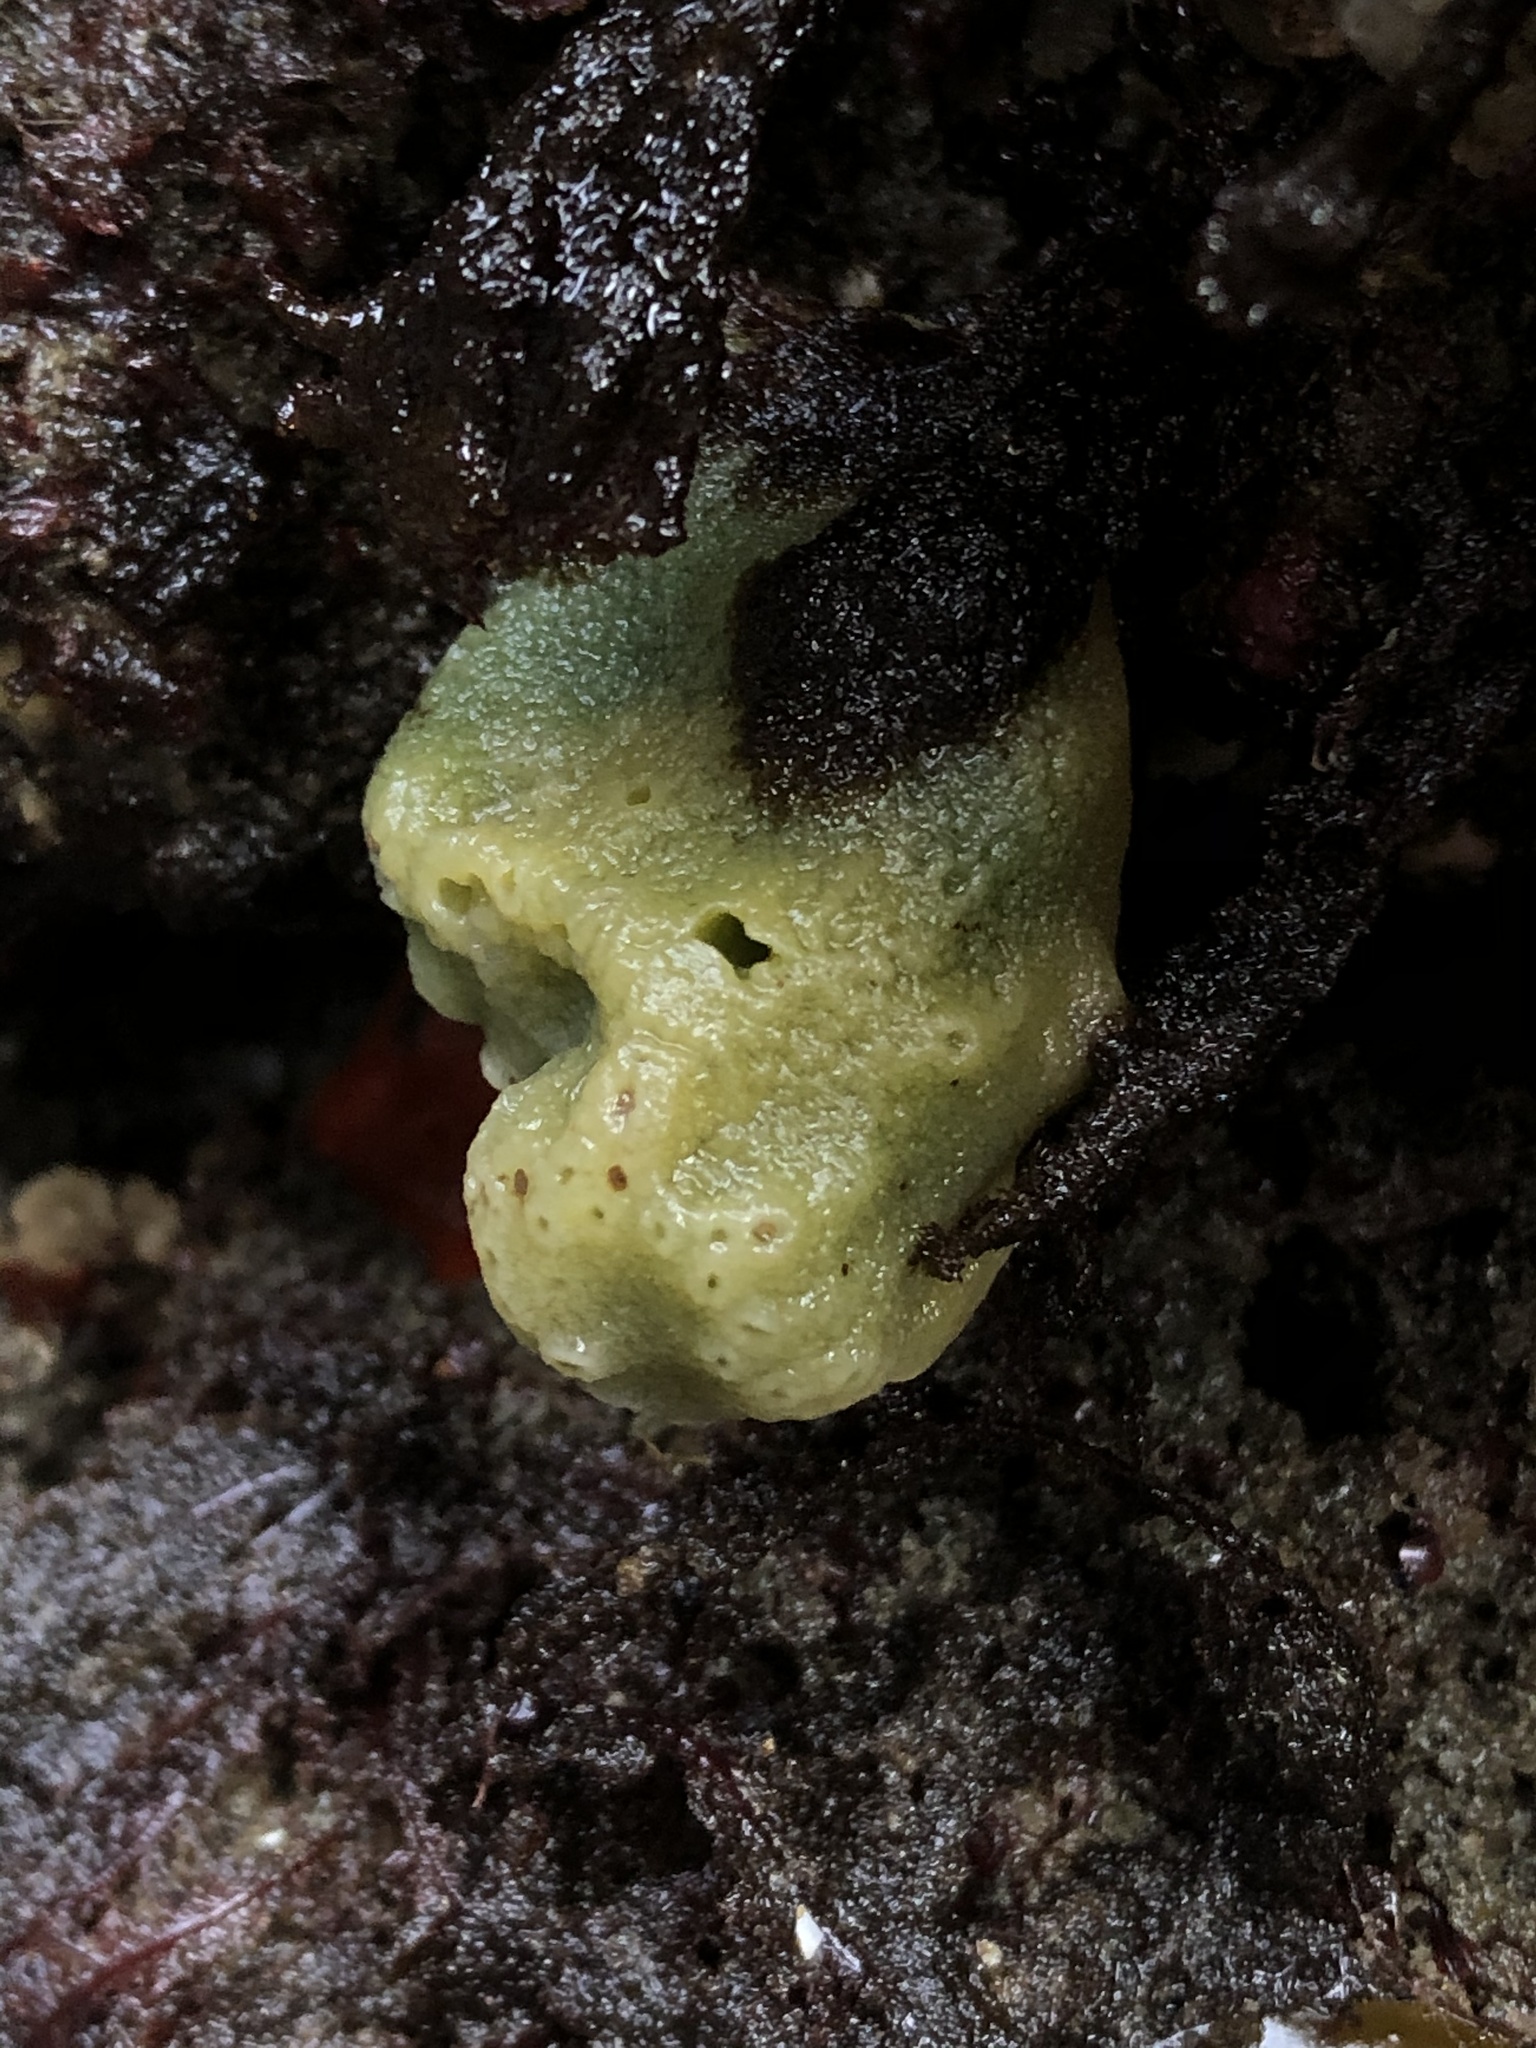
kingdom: Animalia
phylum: Porifera
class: Demospongiae
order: Suberitida
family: Halichondriidae
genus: Halichondria
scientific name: Halichondria panicea
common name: Breadcrumb sponge
